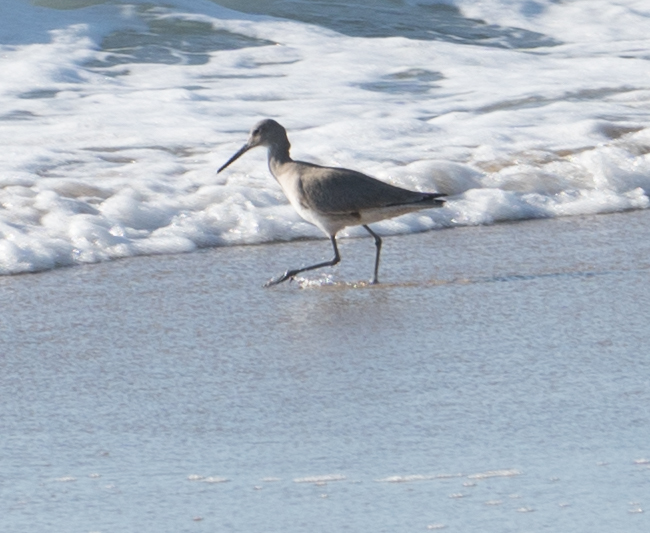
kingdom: Animalia
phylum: Chordata
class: Aves
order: Charadriiformes
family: Scolopacidae
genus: Tringa
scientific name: Tringa semipalmata
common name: Willet
